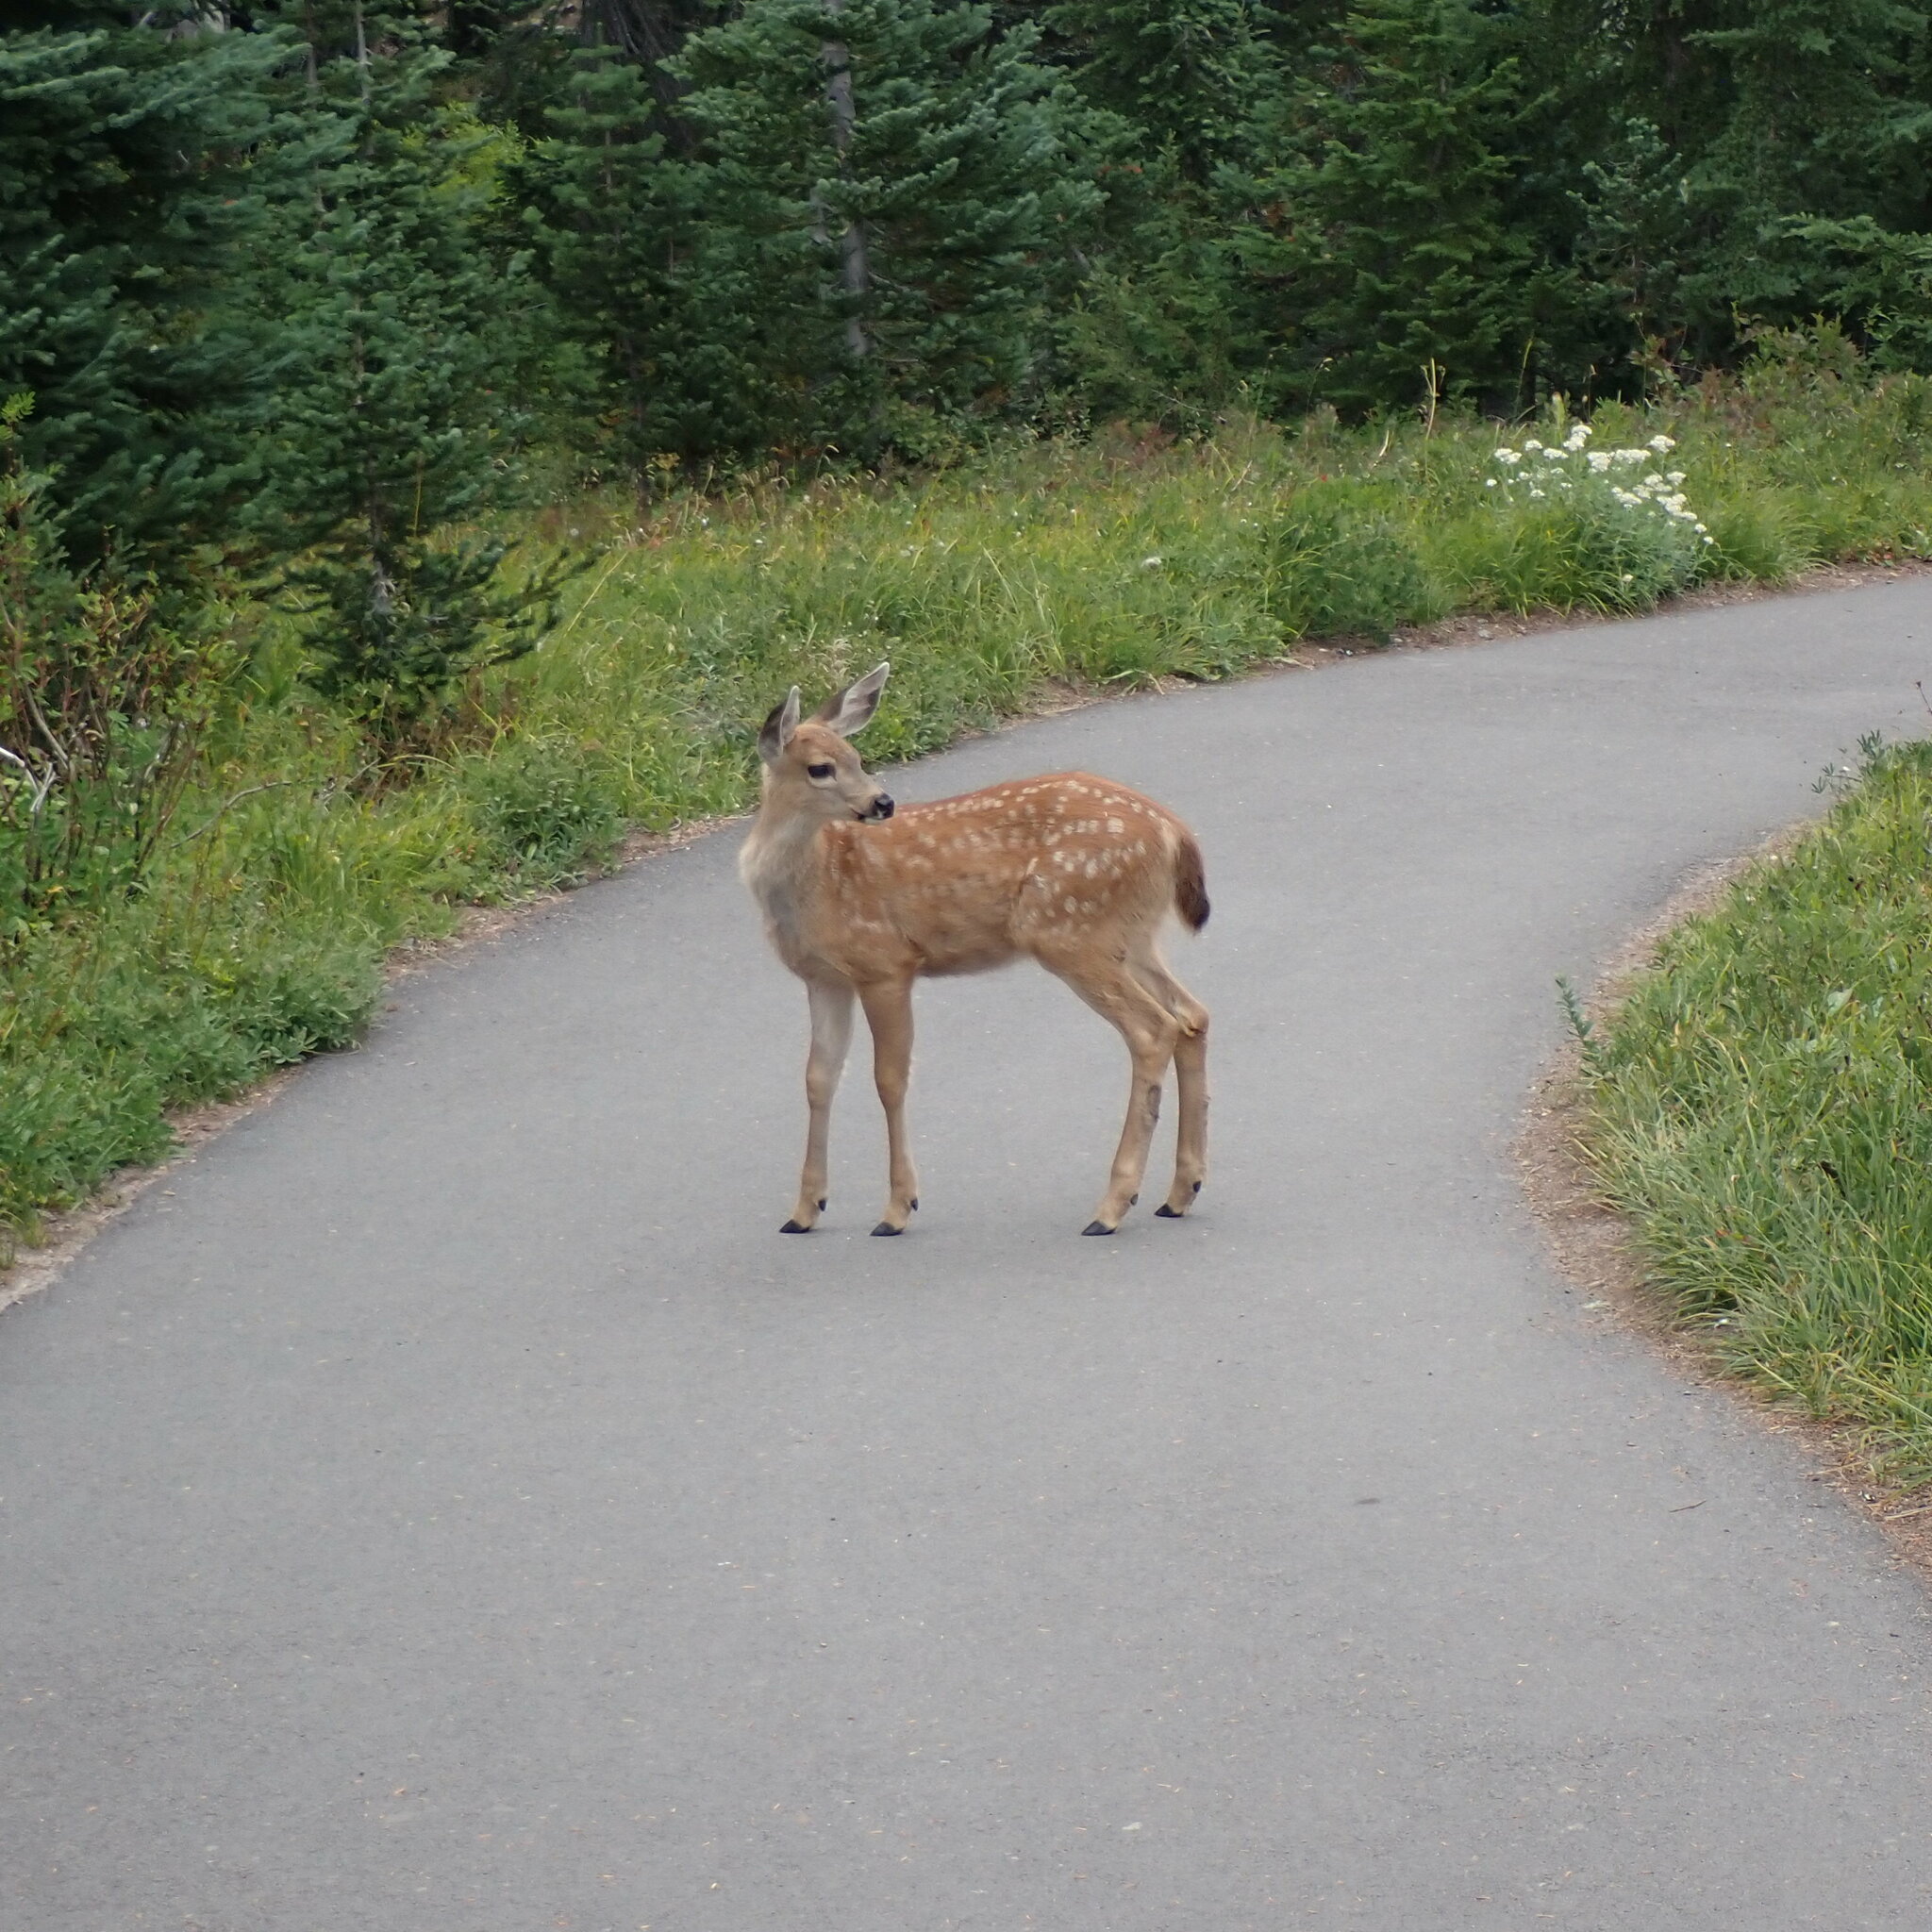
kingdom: Animalia
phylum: Chordata
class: Mammalia
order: Artiodactyla
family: Cervidae
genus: Odocoileus
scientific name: Odocoileus hemionus
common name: Mule deer
